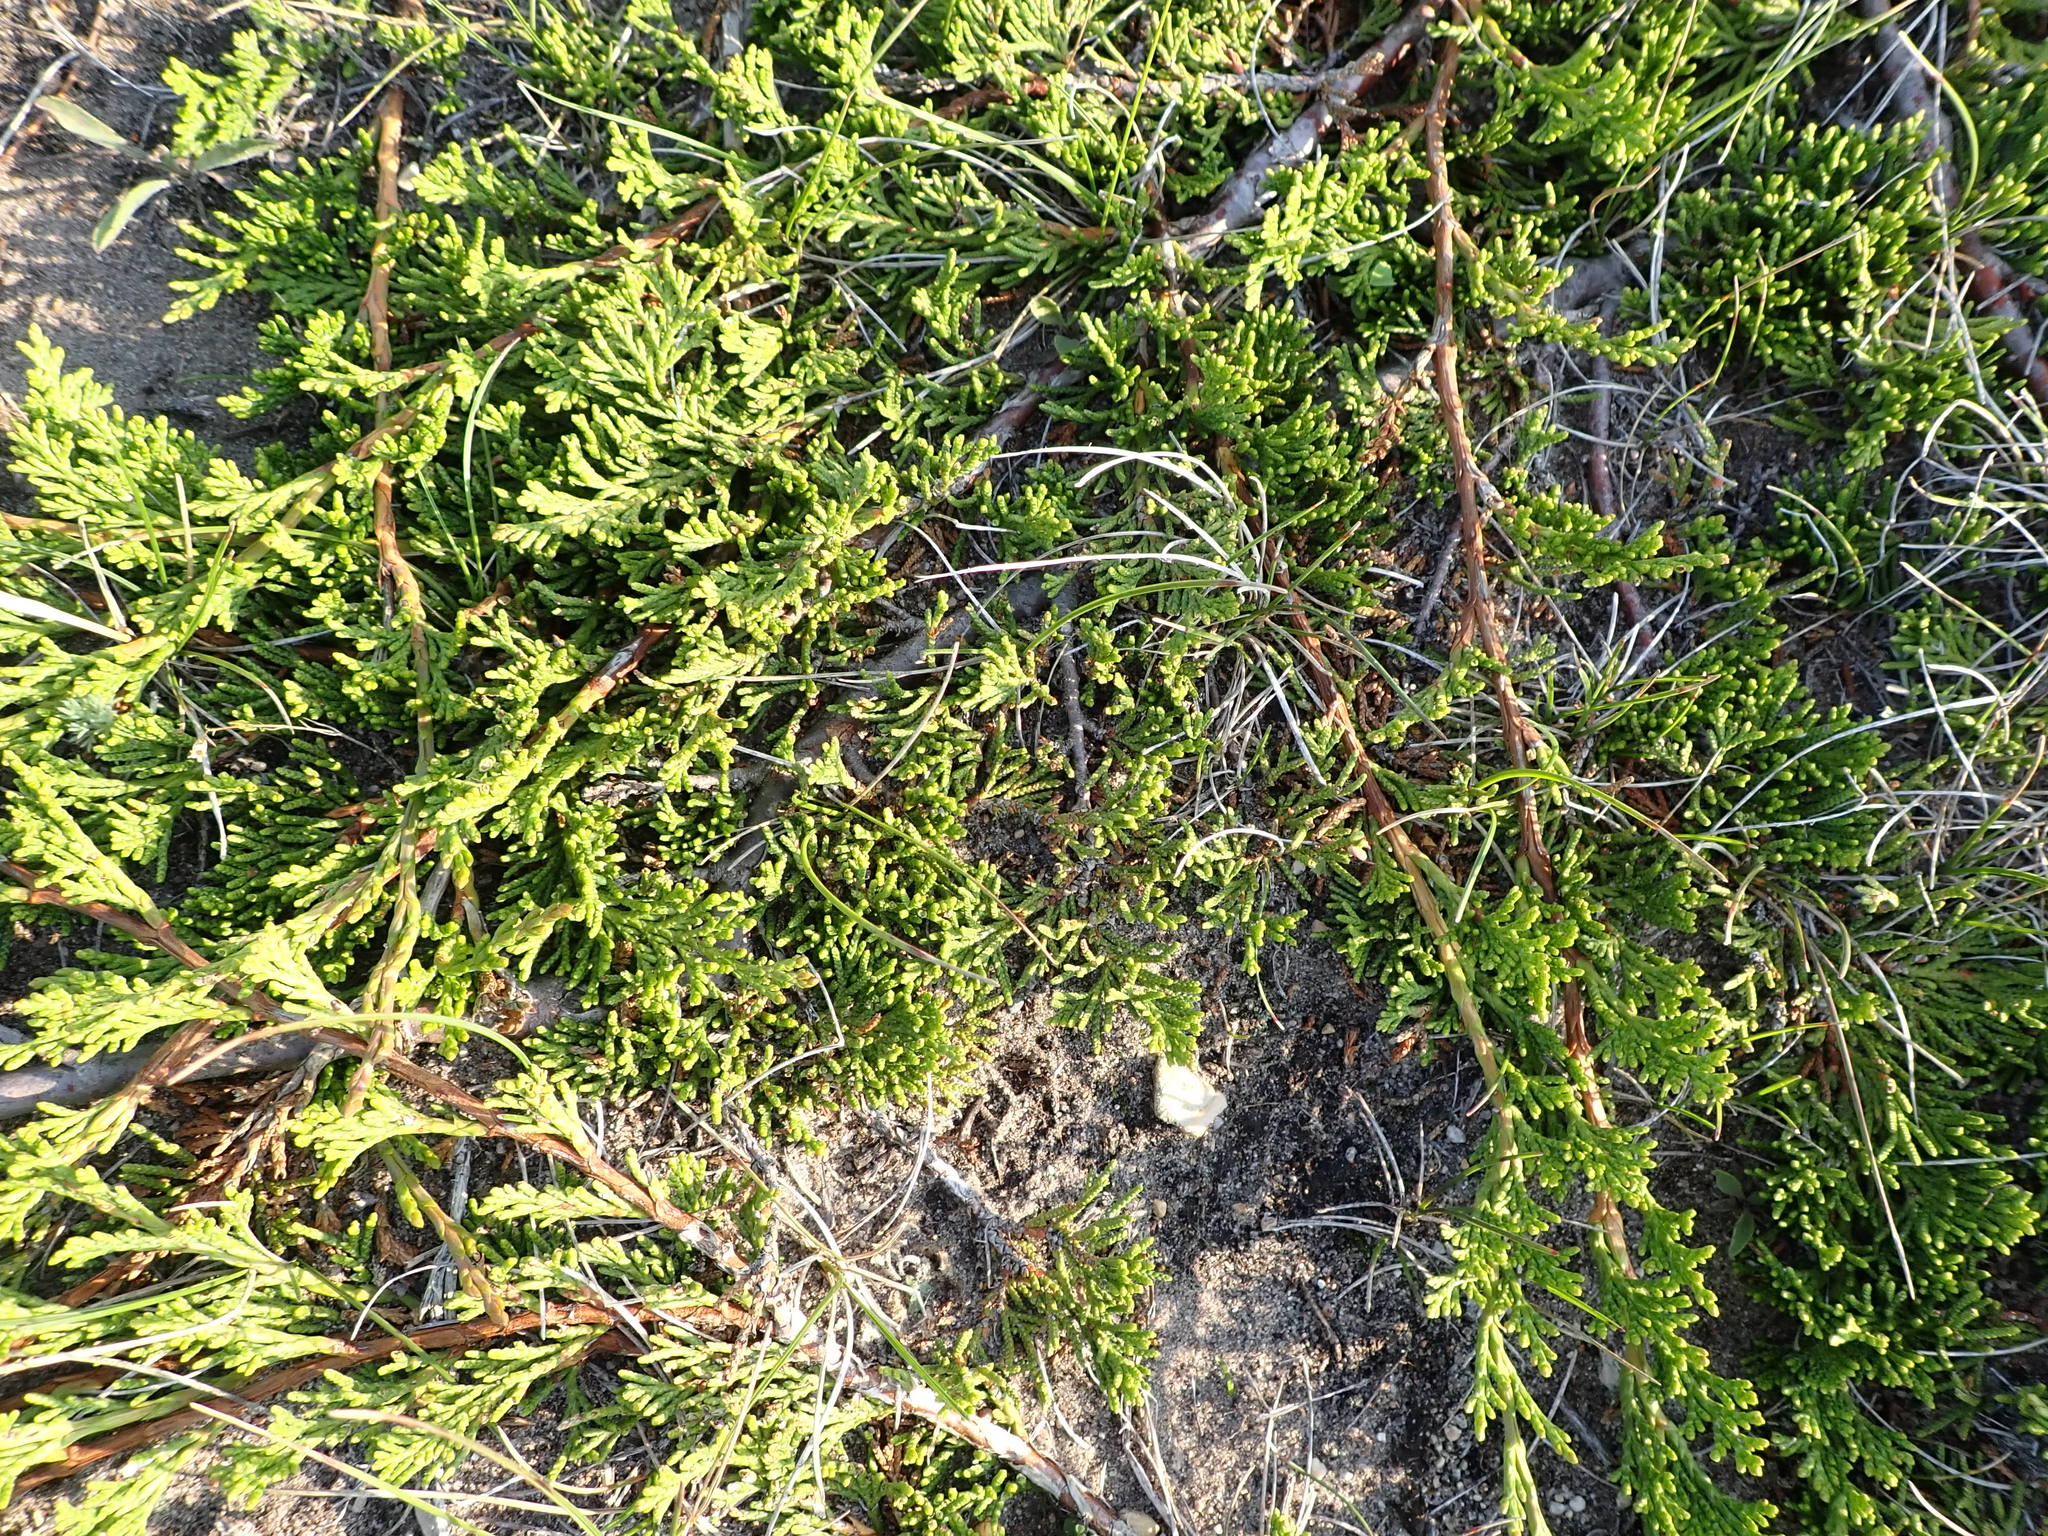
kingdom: Plantae
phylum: Tracheophyta
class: Pinopsida
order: Pinales
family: Cupressaceae
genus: Juniperus
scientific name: Juniperus horizontalis
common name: Creeping juniper
